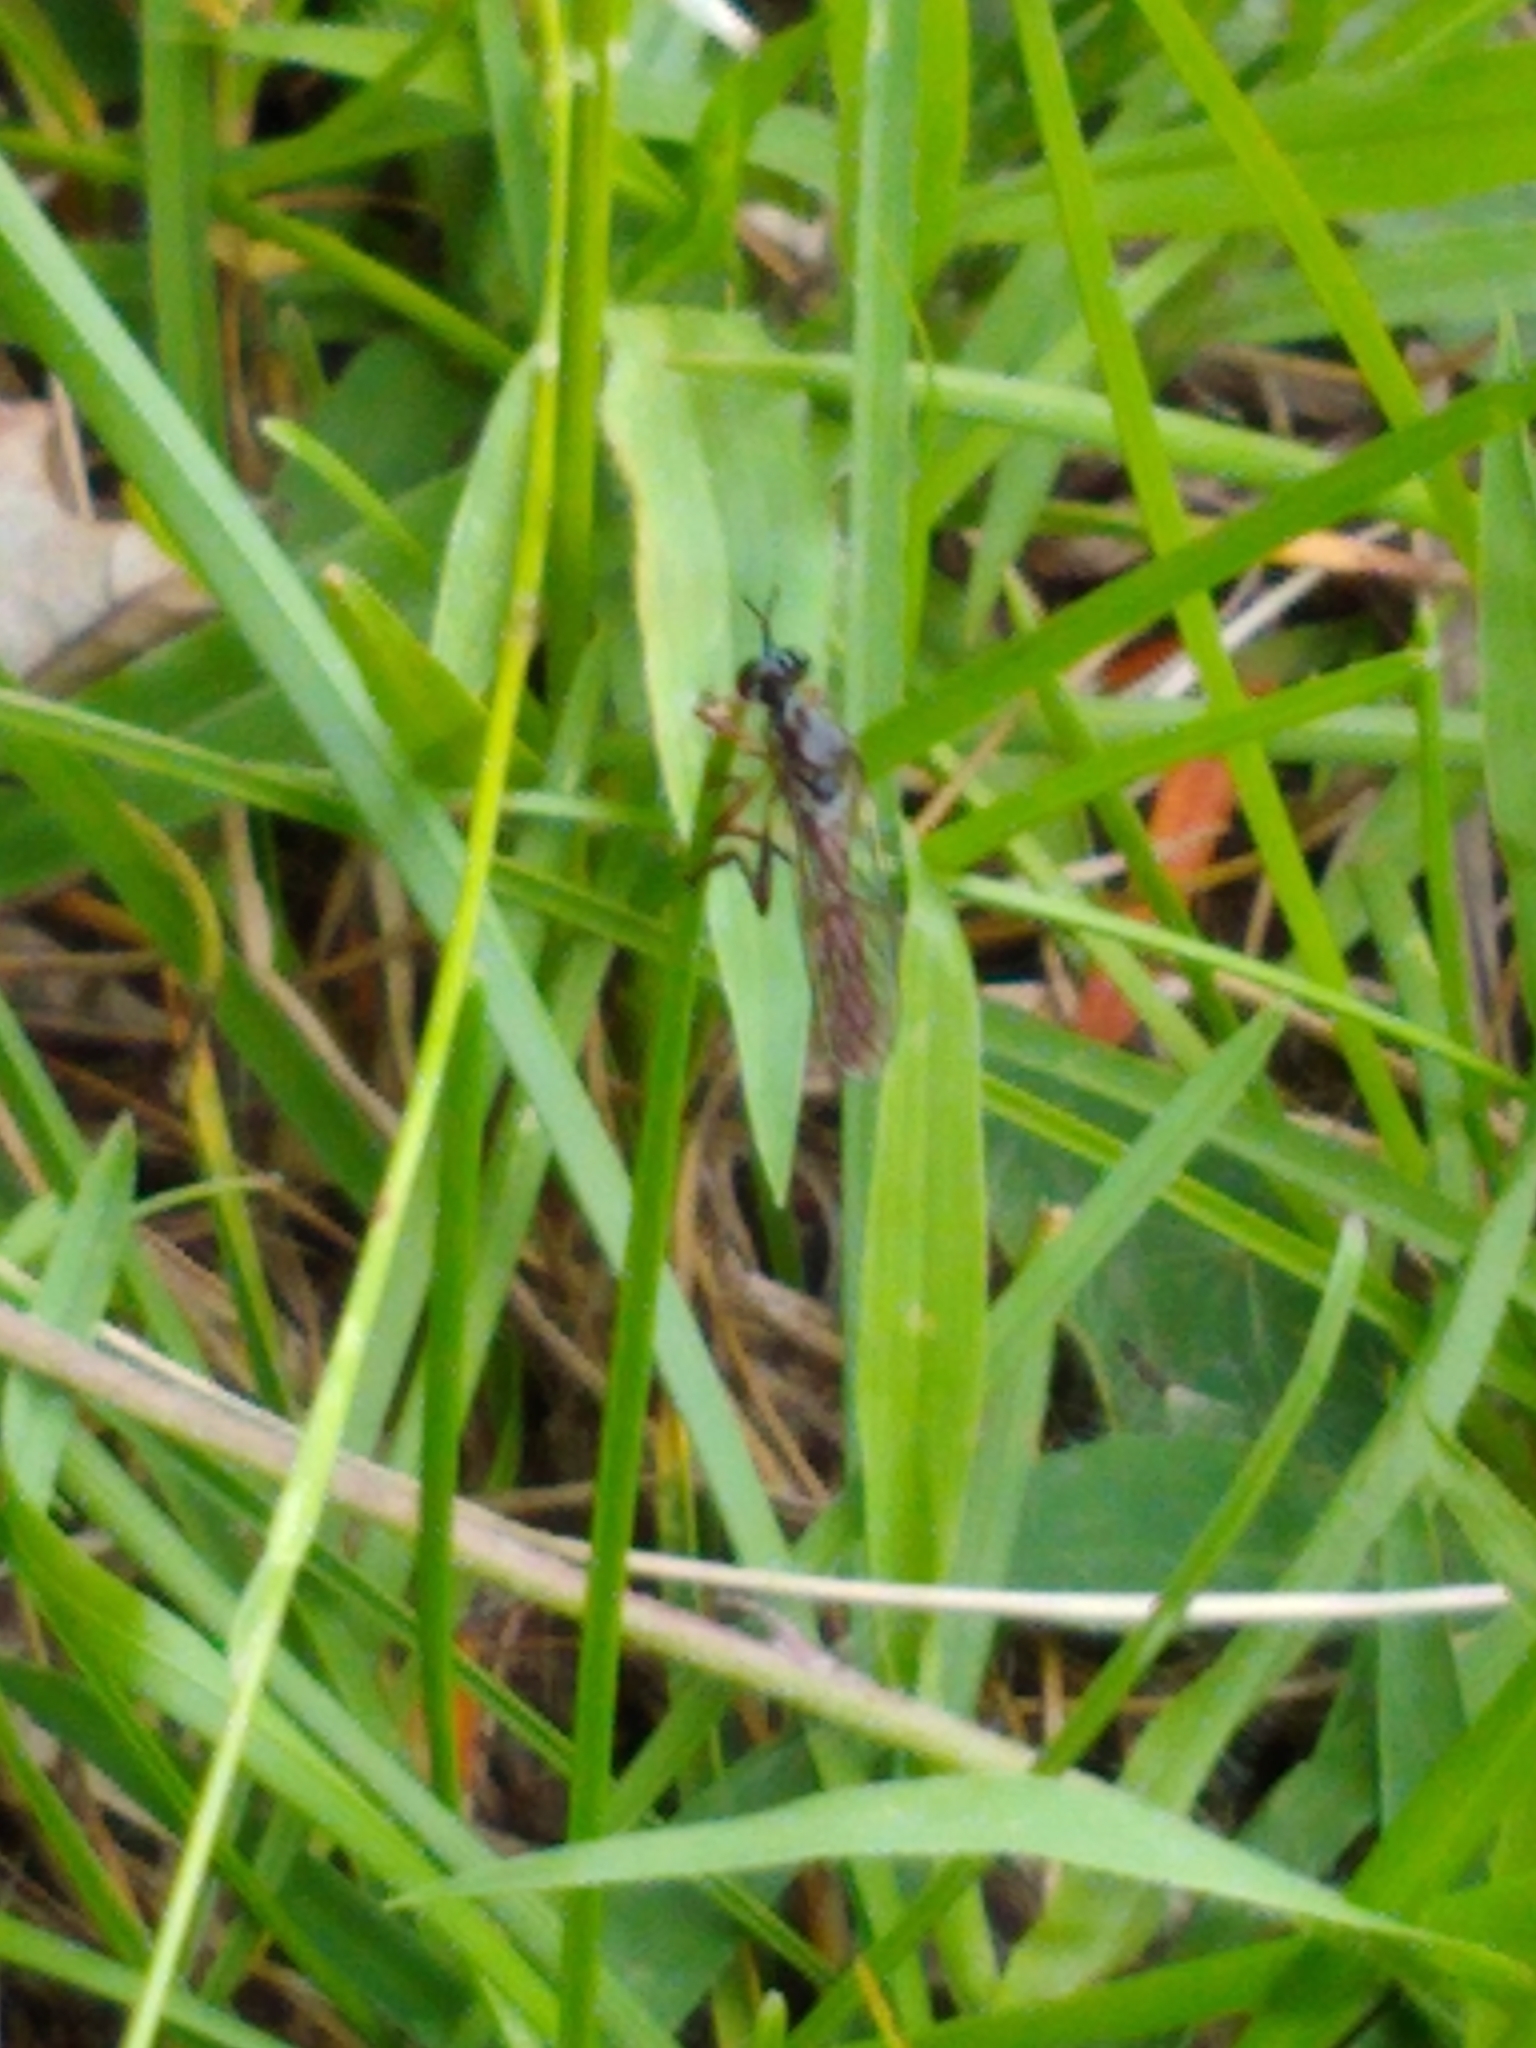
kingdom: Animalia
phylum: Arthropoda
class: Insecta
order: Diptera
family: Asilidae
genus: Dioctria
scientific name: Dioctria hyalipennis
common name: Stripe-legged robberfly
